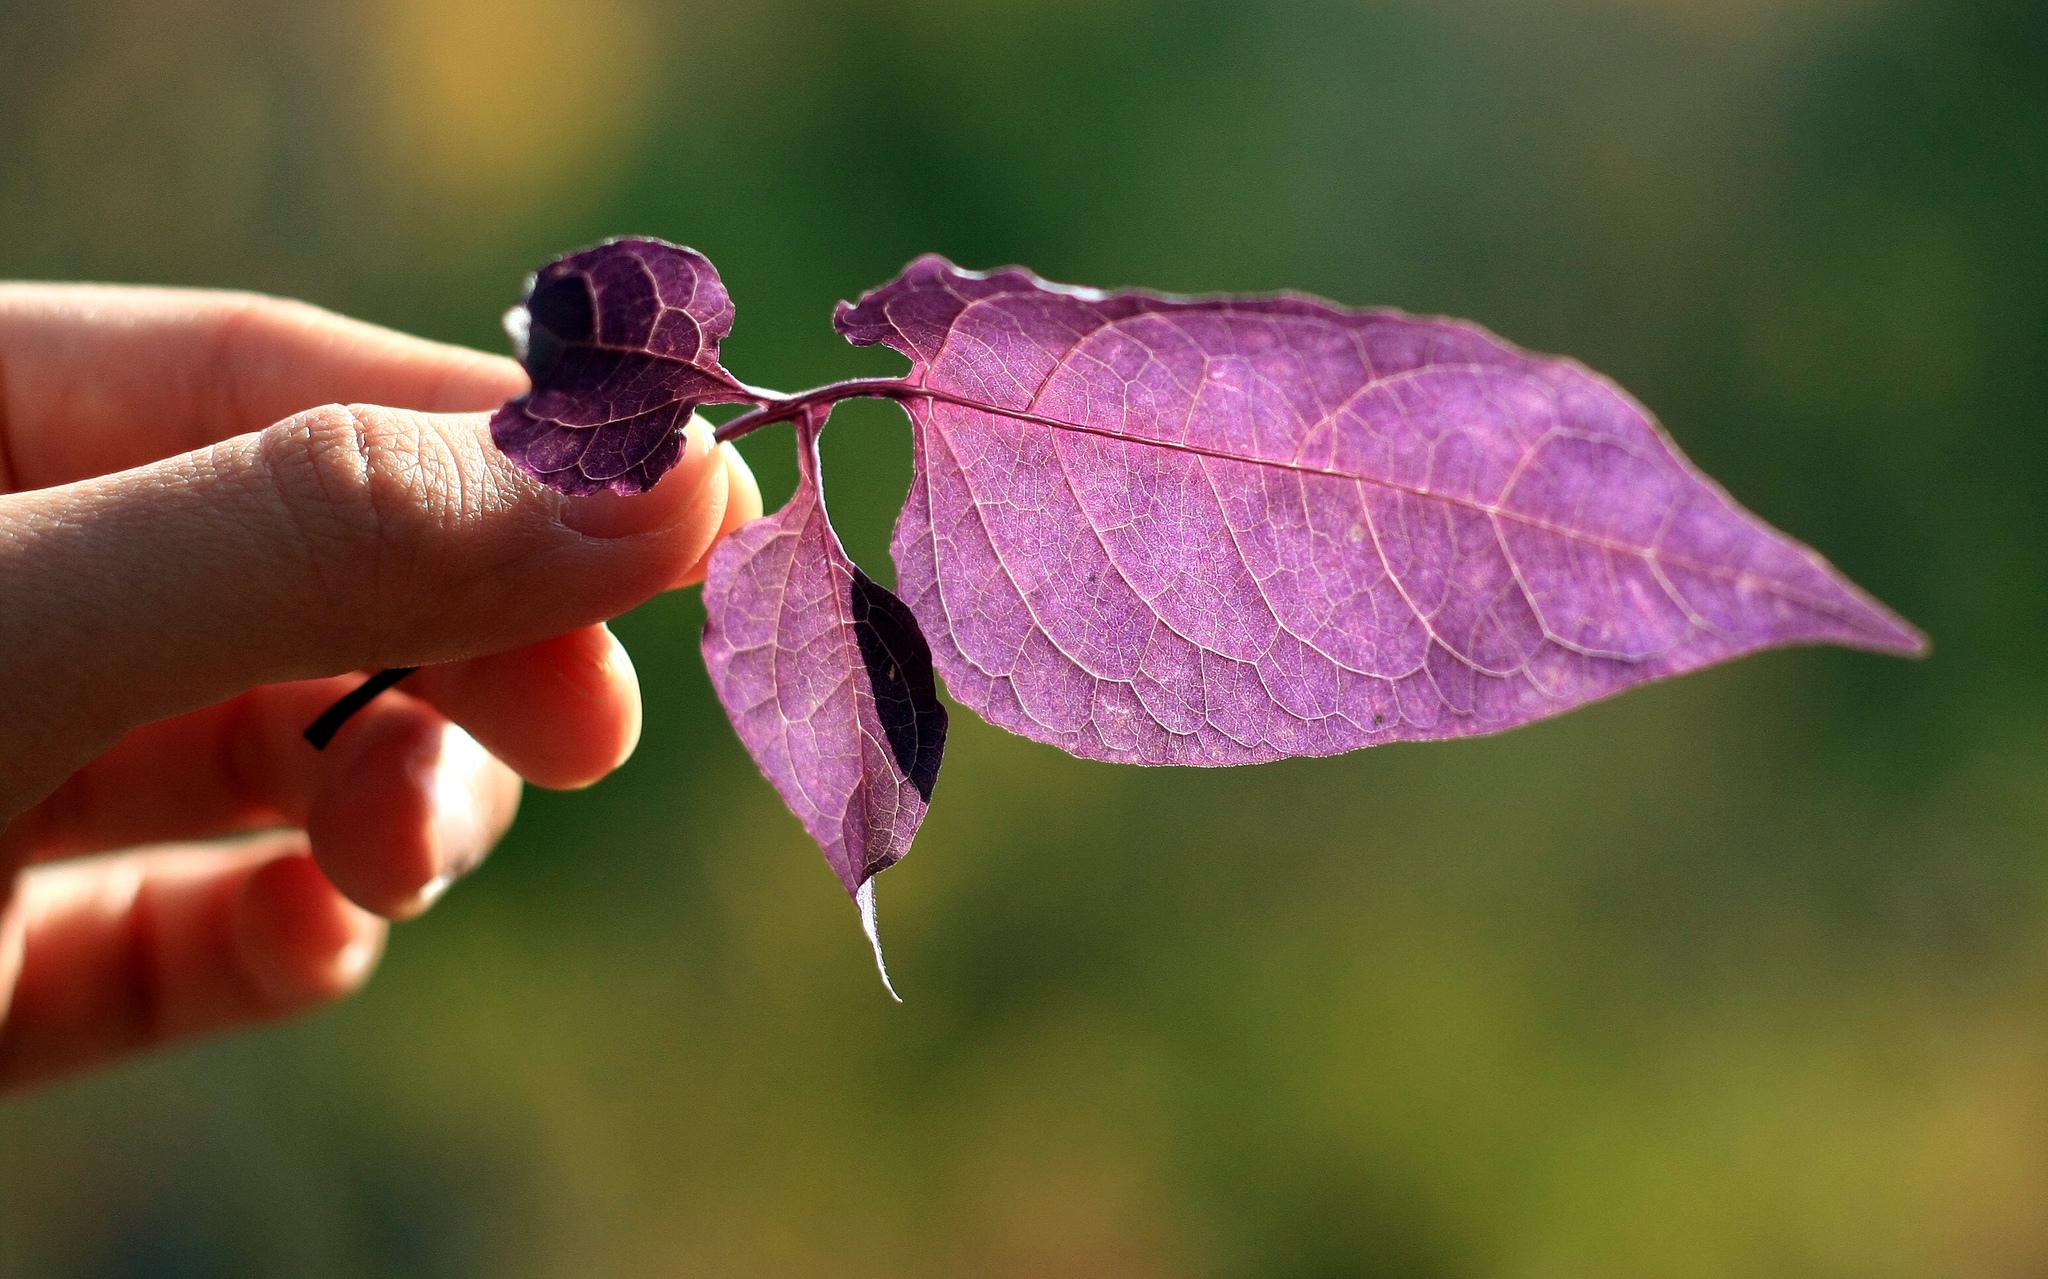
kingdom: Plantae
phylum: Tracheophyta
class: Magnoliopsida
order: Solanales
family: Solanaceae
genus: Solanum
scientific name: Solanum dulcamara
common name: Climbing nightshade
